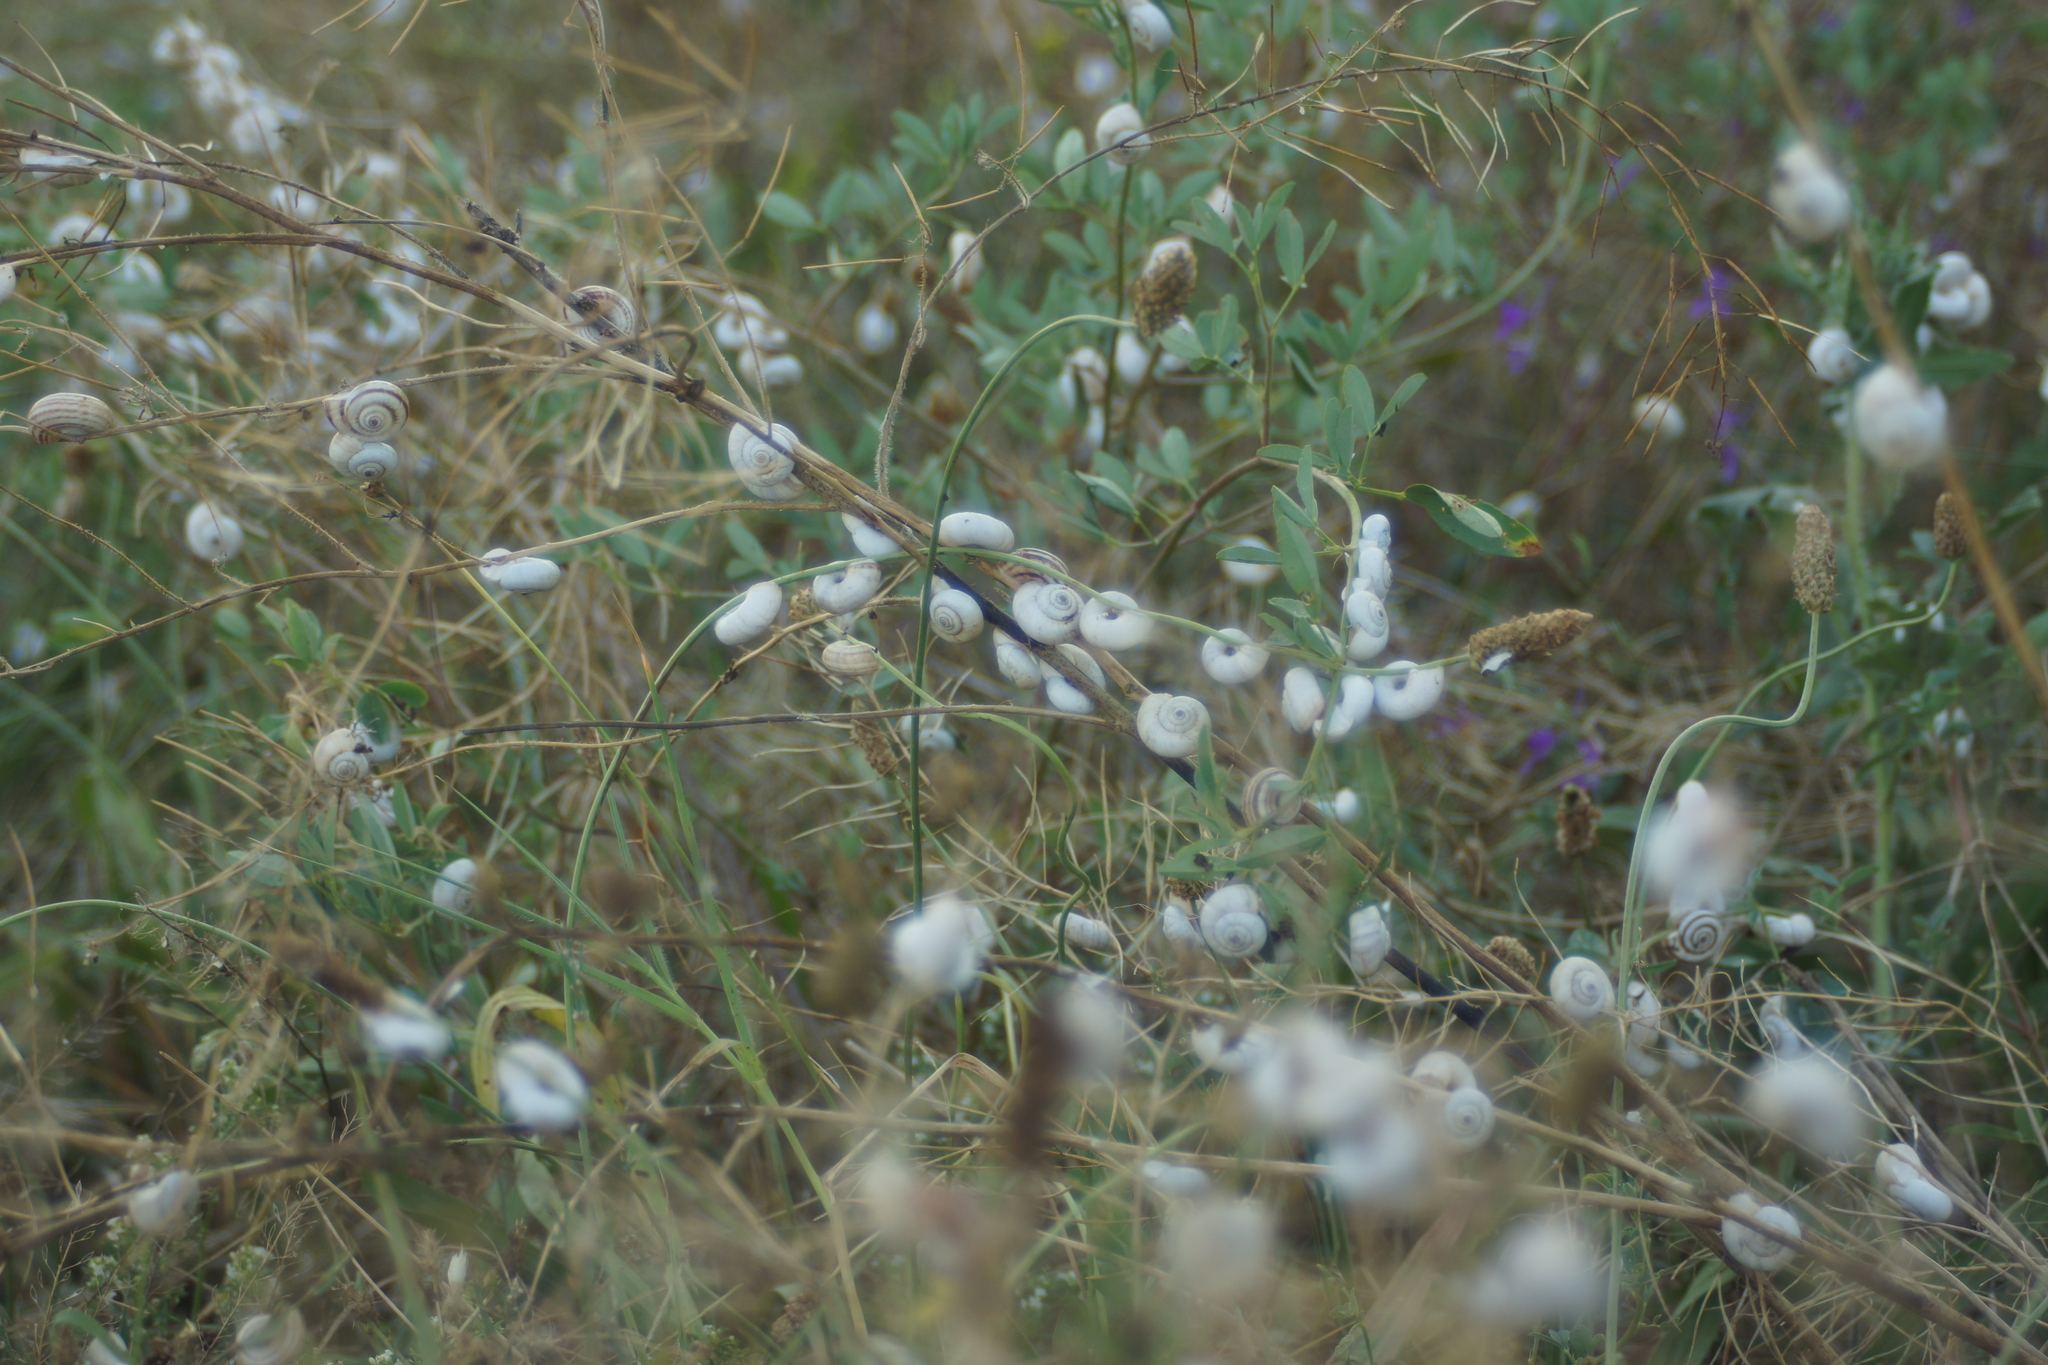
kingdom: Animalia
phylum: Mollusca
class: Gastropoda
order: Stylommatophora
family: Geomitridae
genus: Xeropicta
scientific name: Xeropicta derbentina
